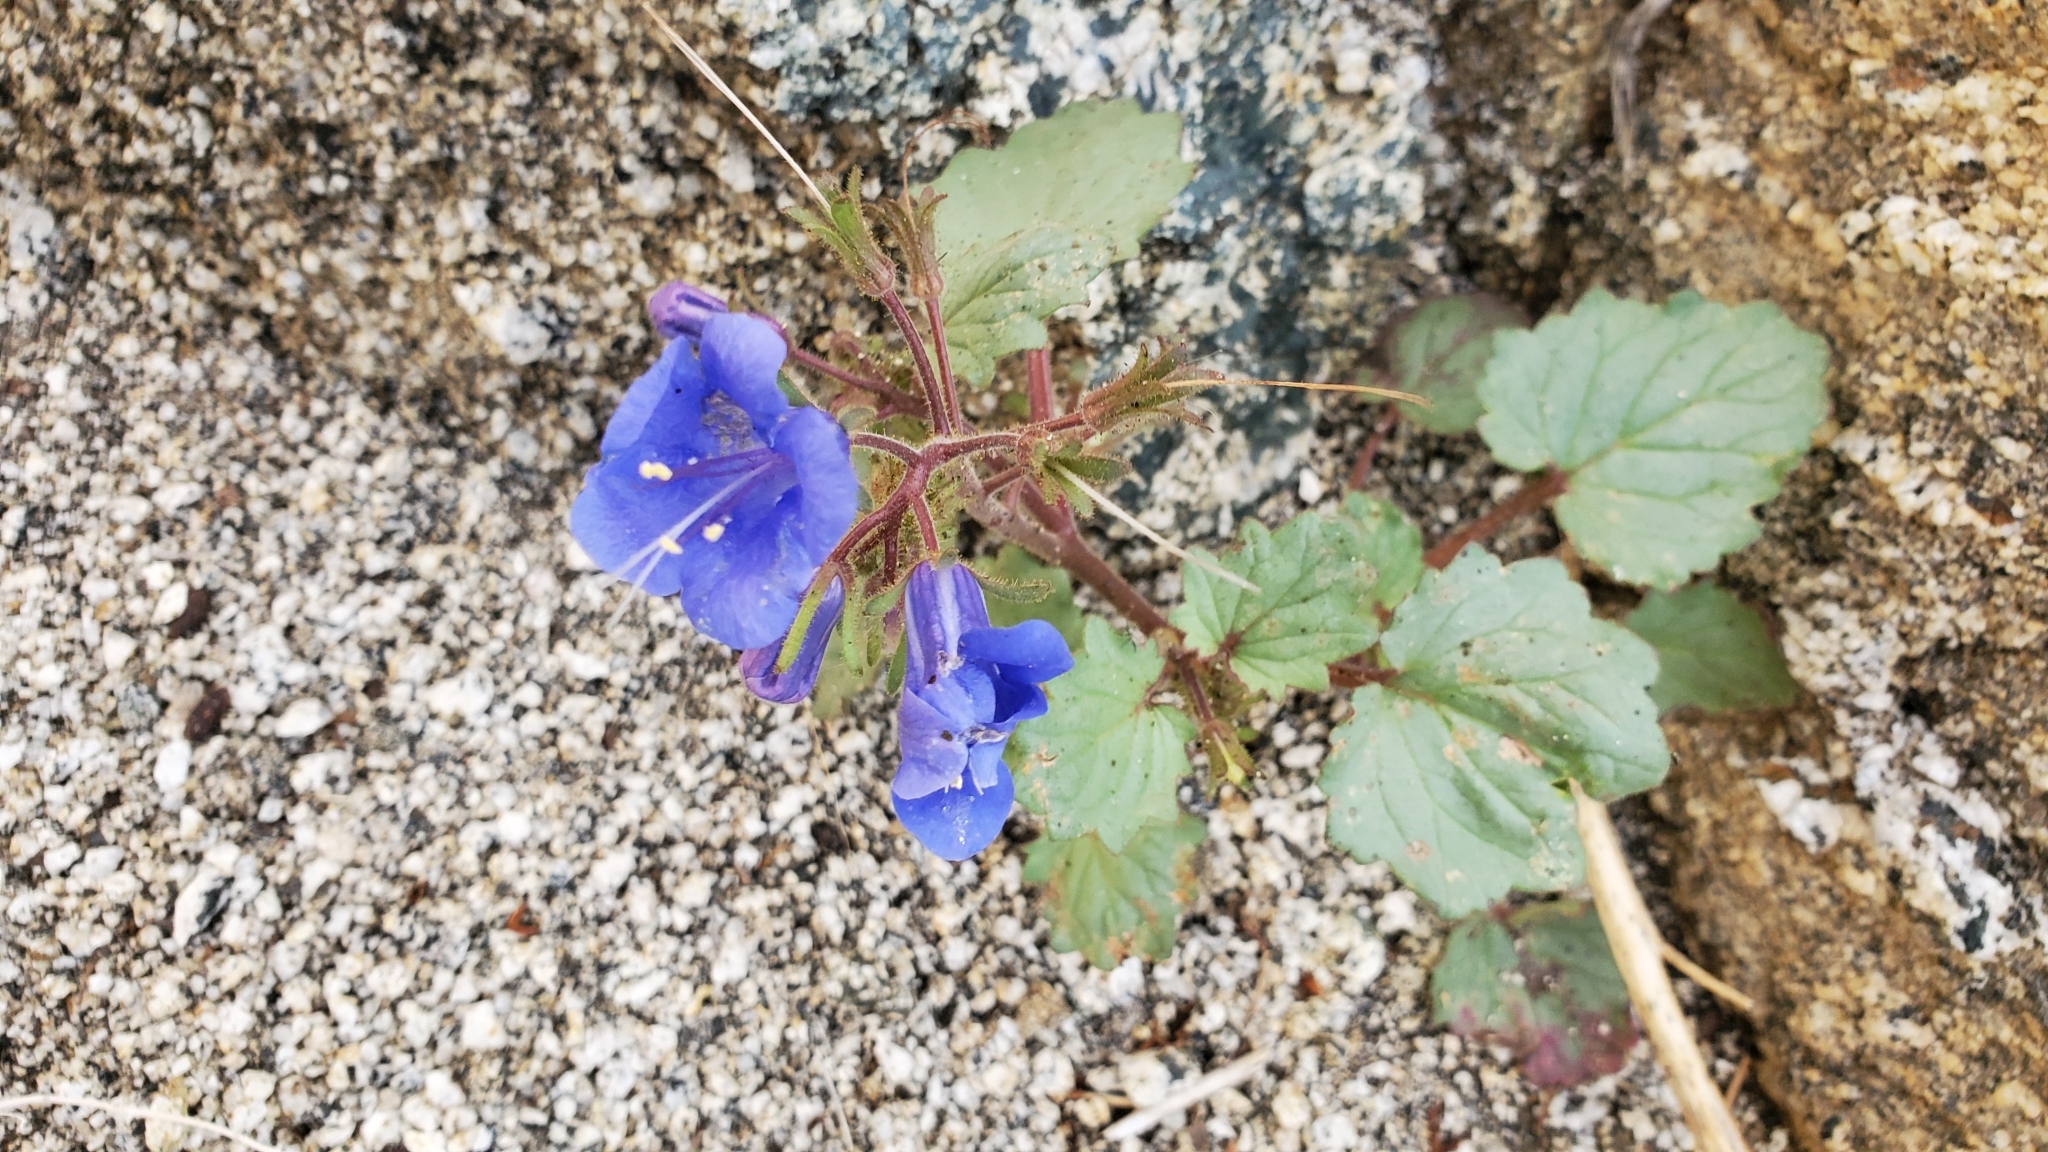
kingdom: Plantae
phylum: Tracheophyta
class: Magnoliopsida
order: Boraginales
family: Hydrophyllaceae
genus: Phacelia
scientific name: Phacelia campanularia
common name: California bluebell
